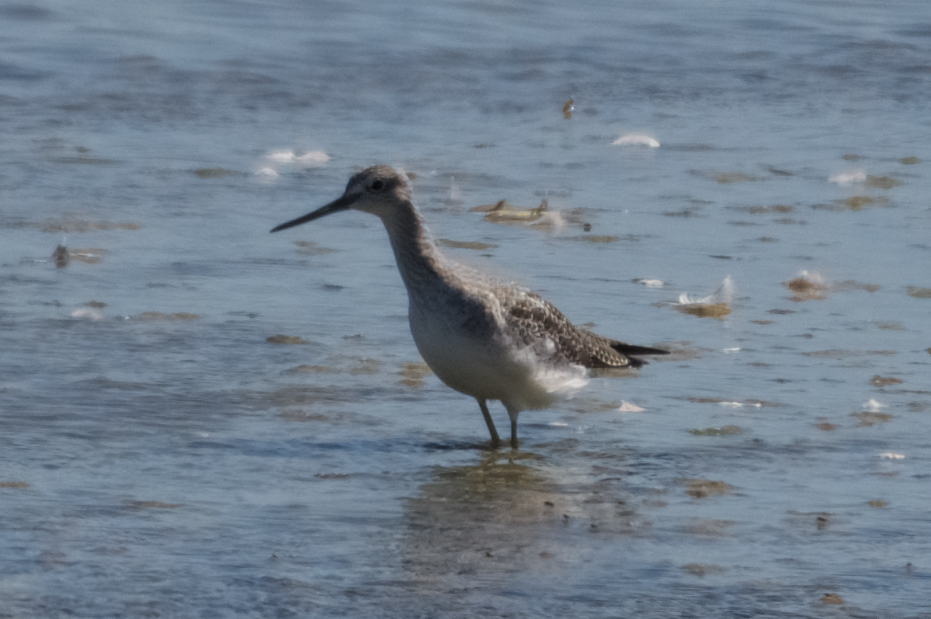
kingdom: Animalia
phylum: Chordata
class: Aves
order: Charadriiformes
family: Scolopacidae
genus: Tringa
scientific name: Tringa melanoleuca
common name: Greater yellowlegs
